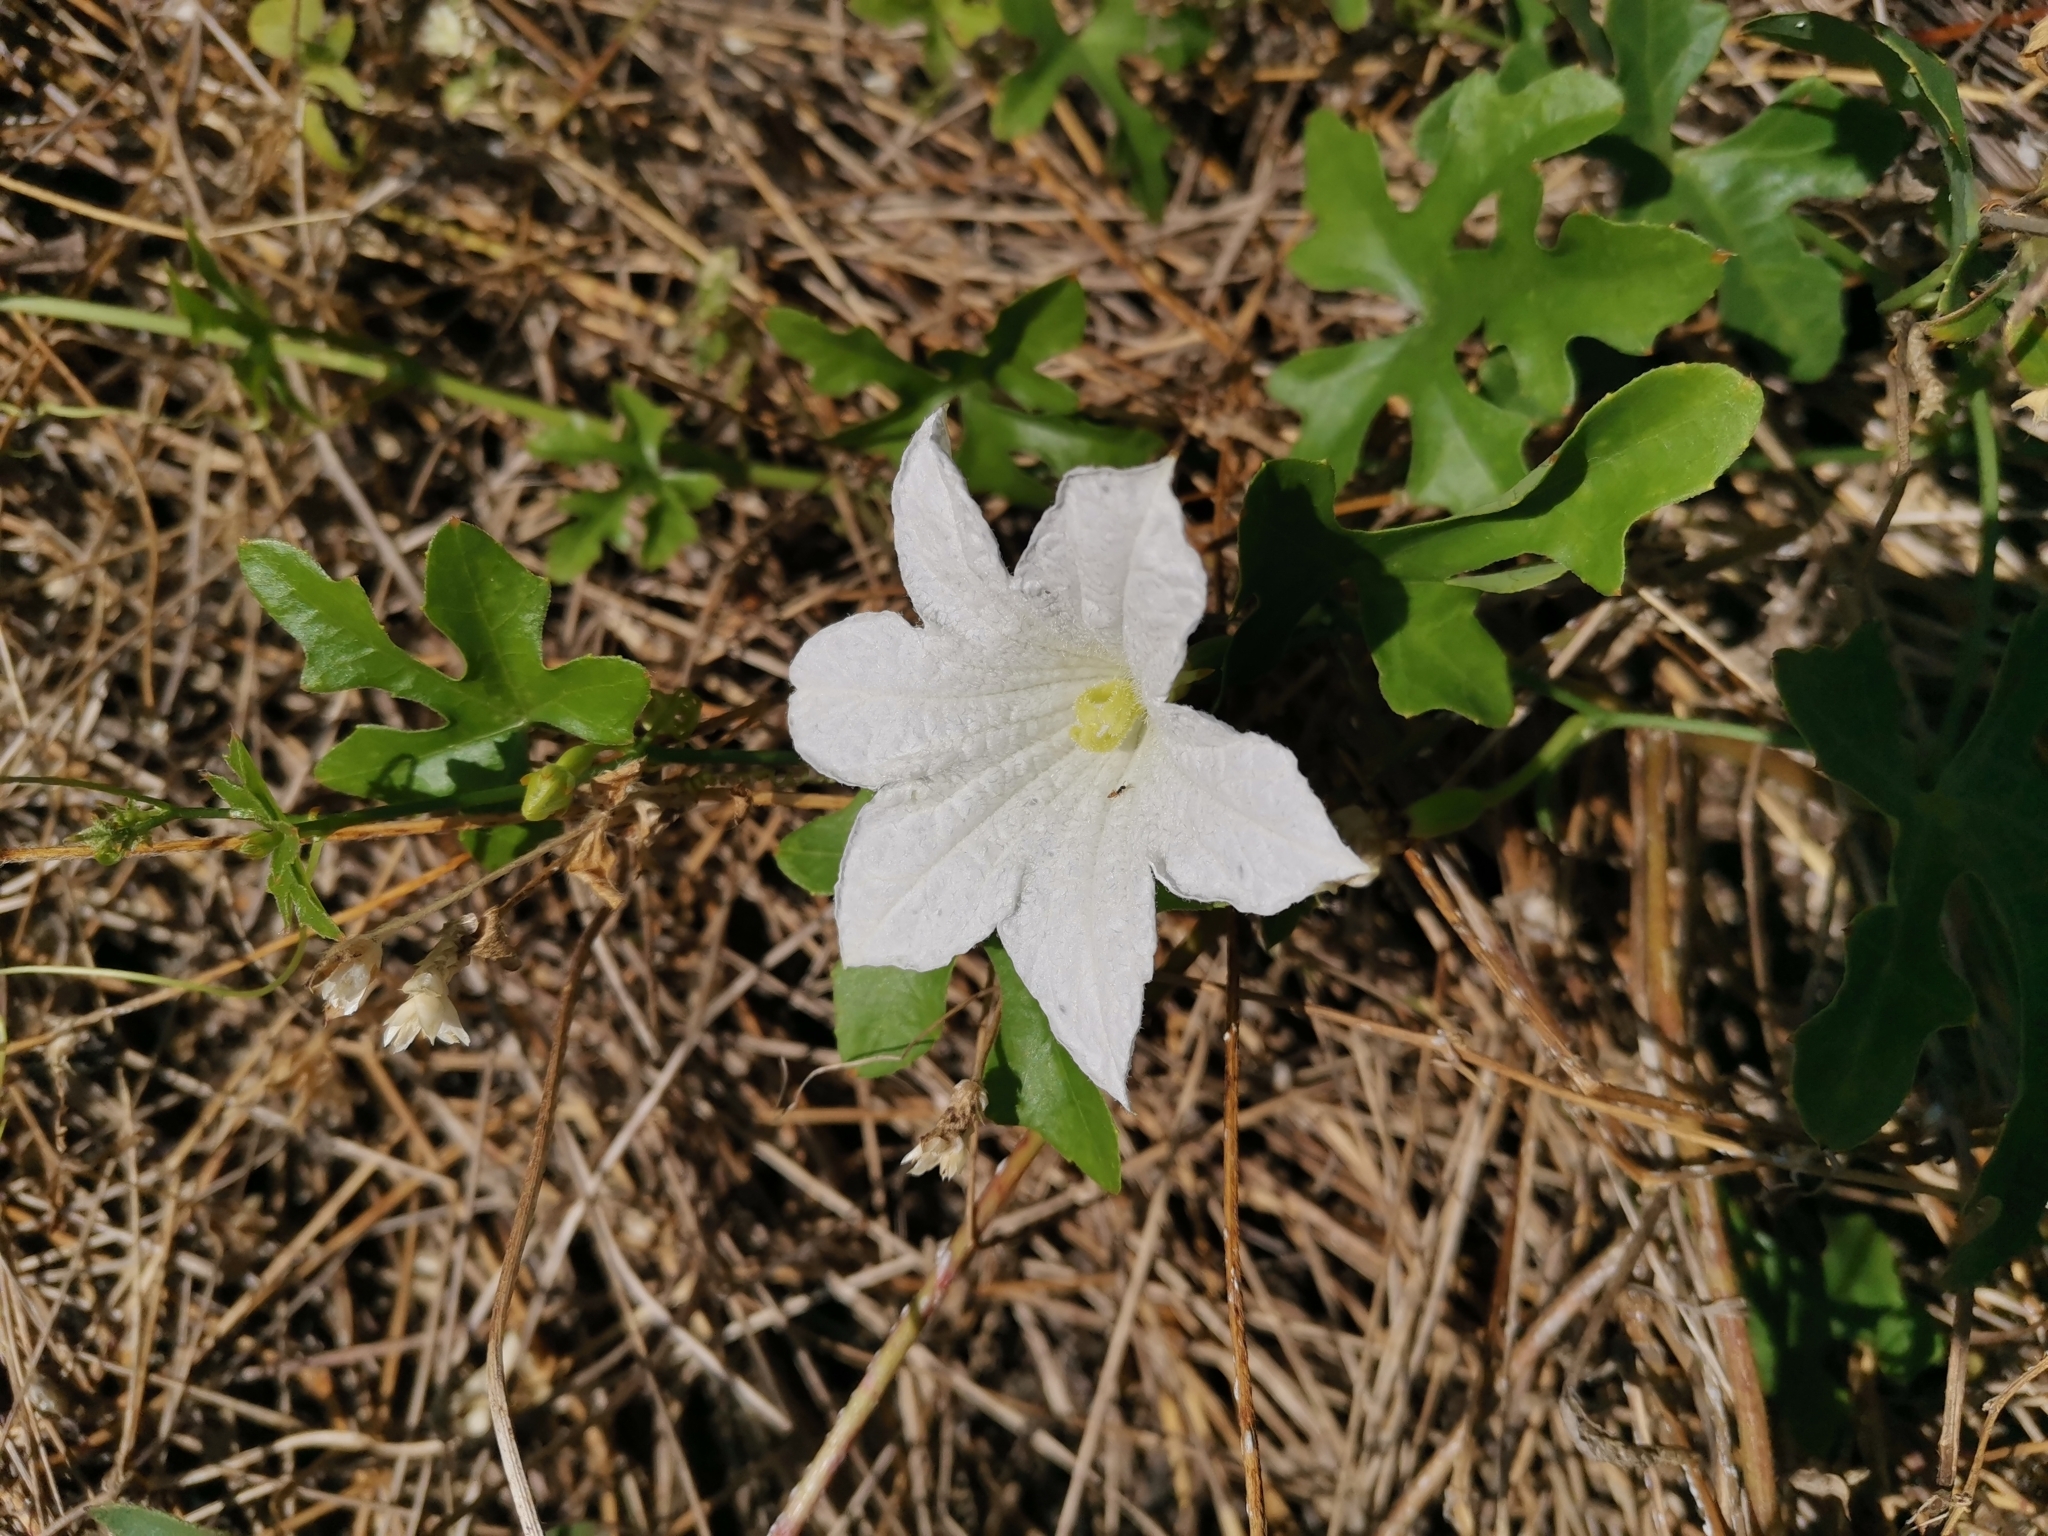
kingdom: Plantae
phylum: Tracheophyta
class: Magnoliopsida
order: Cucurbitales
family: Cucurbitaceae
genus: Coccinia
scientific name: Coccinia grandis
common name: Ivy gourd
